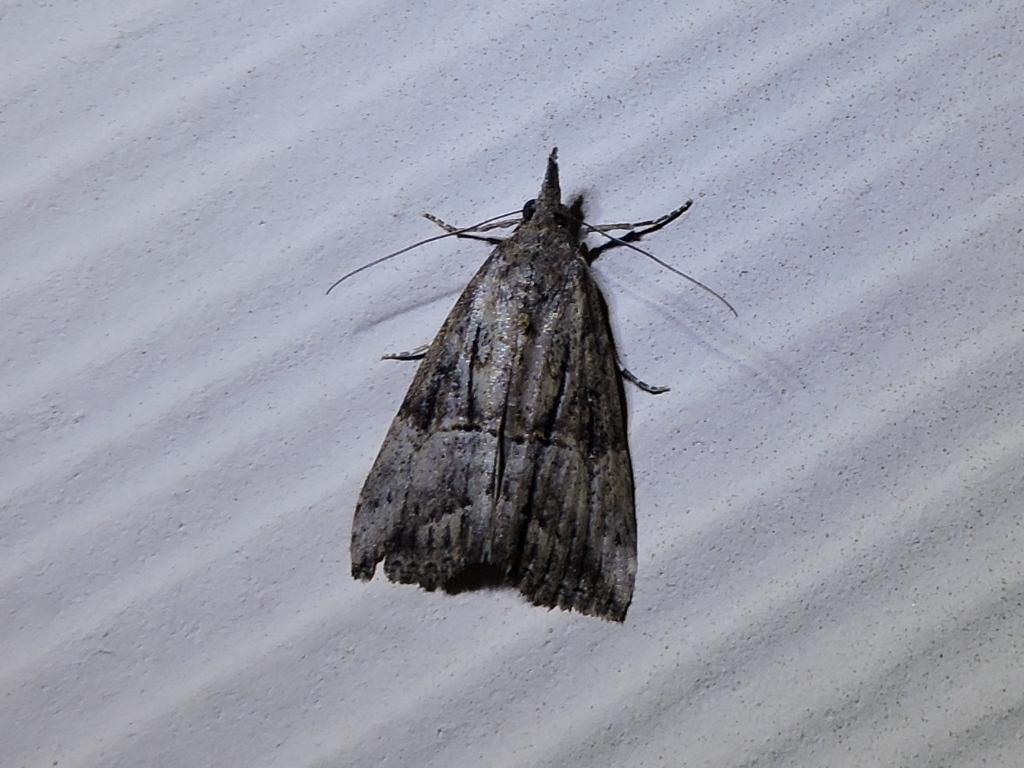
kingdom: Animalia
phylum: Arthropoda
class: Insecta
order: Lepidoptera
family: Erebidae
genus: Hypena
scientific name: Hypena scabra
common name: Green cloverworm
